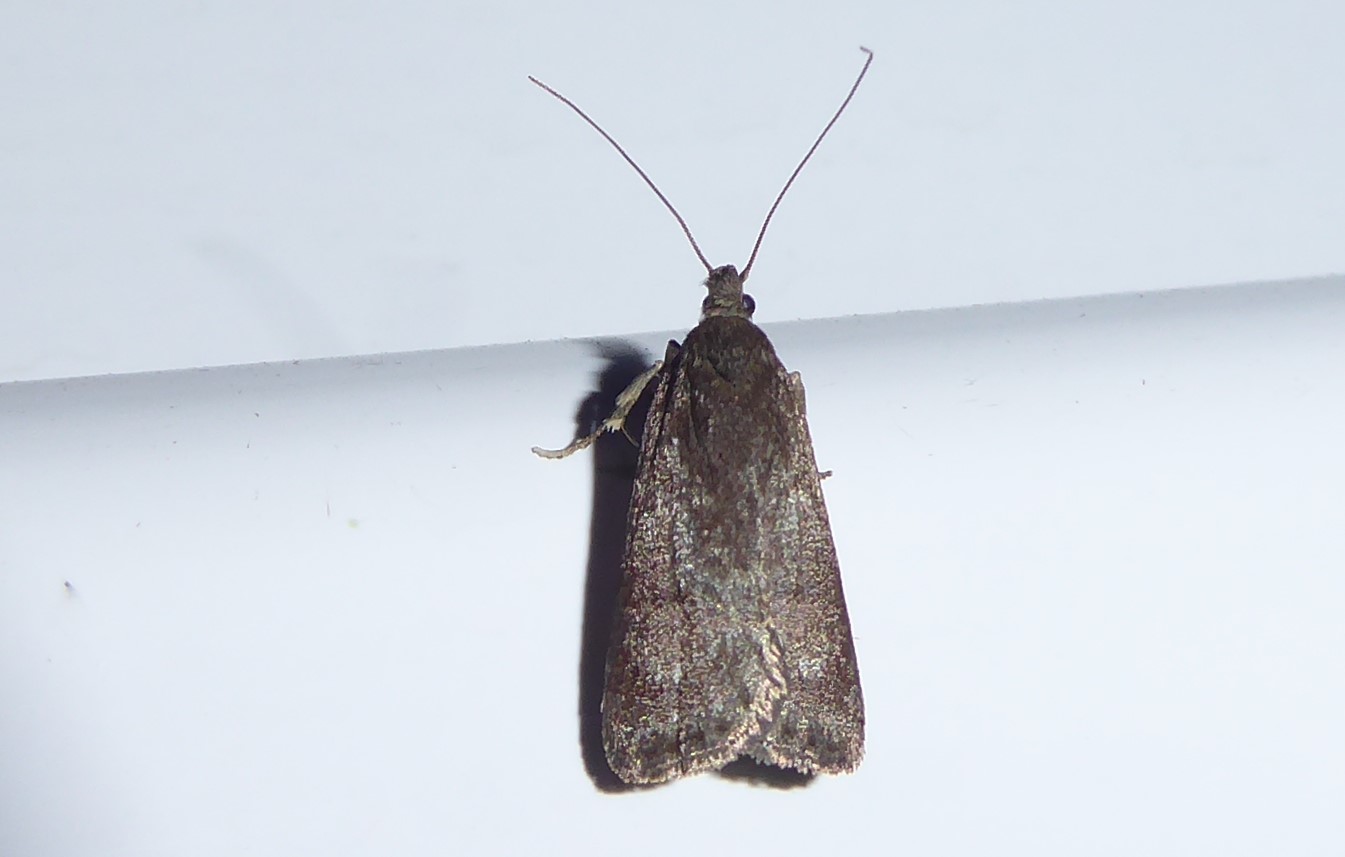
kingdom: Animalia
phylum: Arthropoda
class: Insecta
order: Lepidoptera
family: Depressariidae
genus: Phaeosaces
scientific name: Phaeosaces apocrypta
